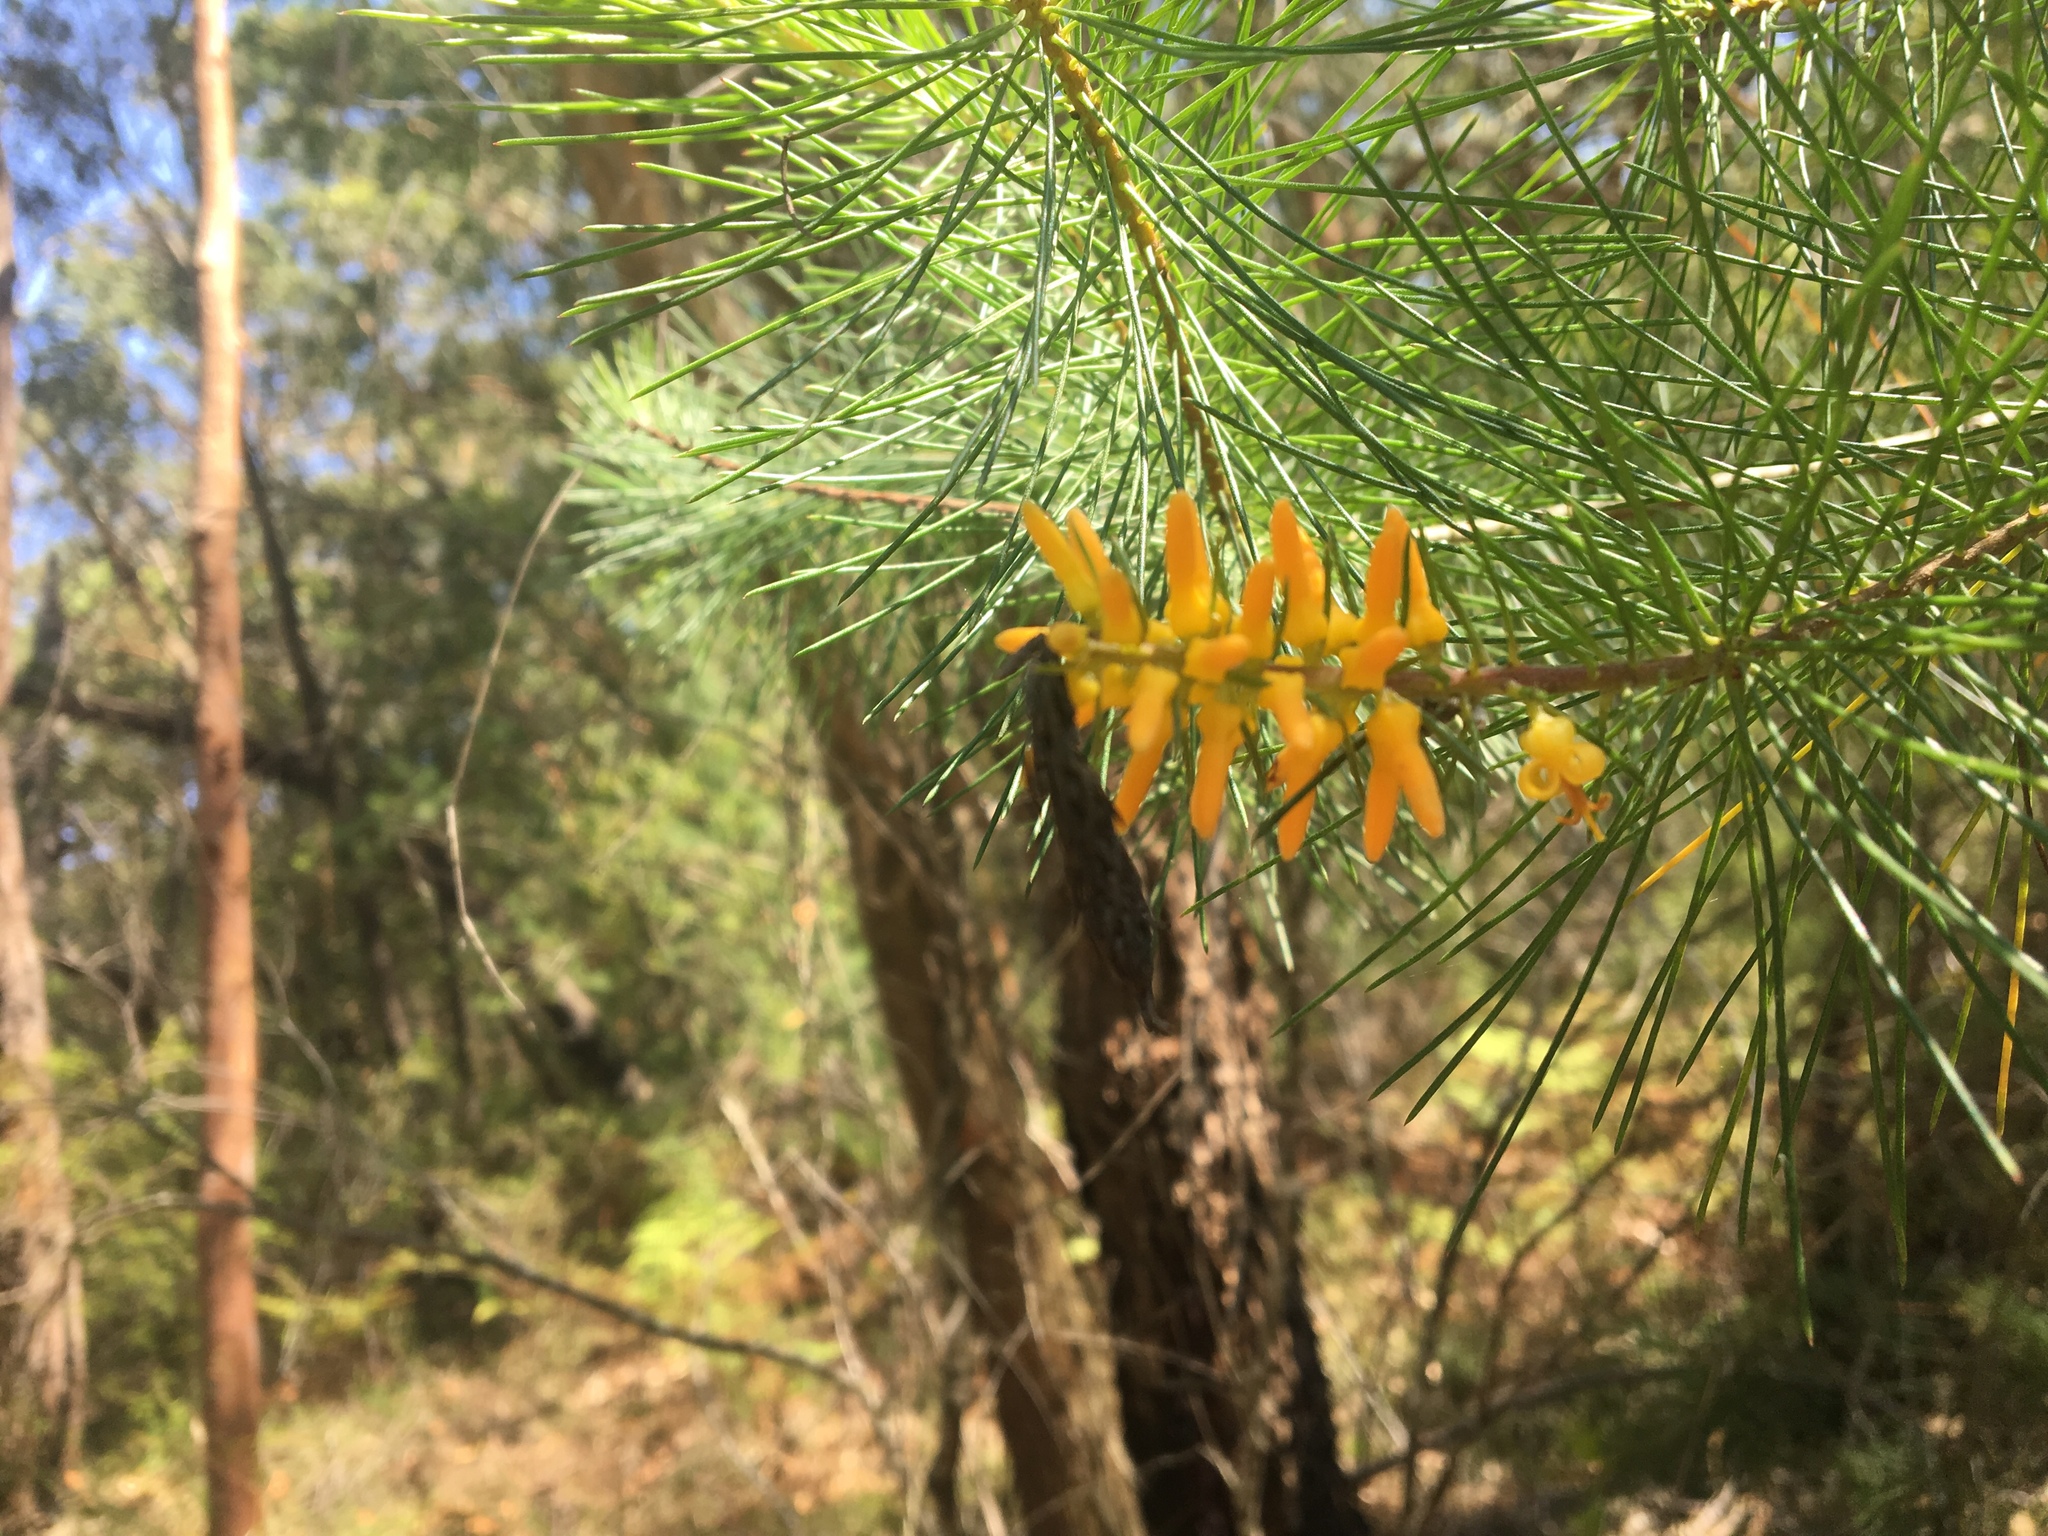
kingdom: Plantae
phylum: Tracheophyta
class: Magnoliopsida
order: Proteales
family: Proteaceae
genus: Persoonia
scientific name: Persoonia pinifolia
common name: Pine-leaf geebung
